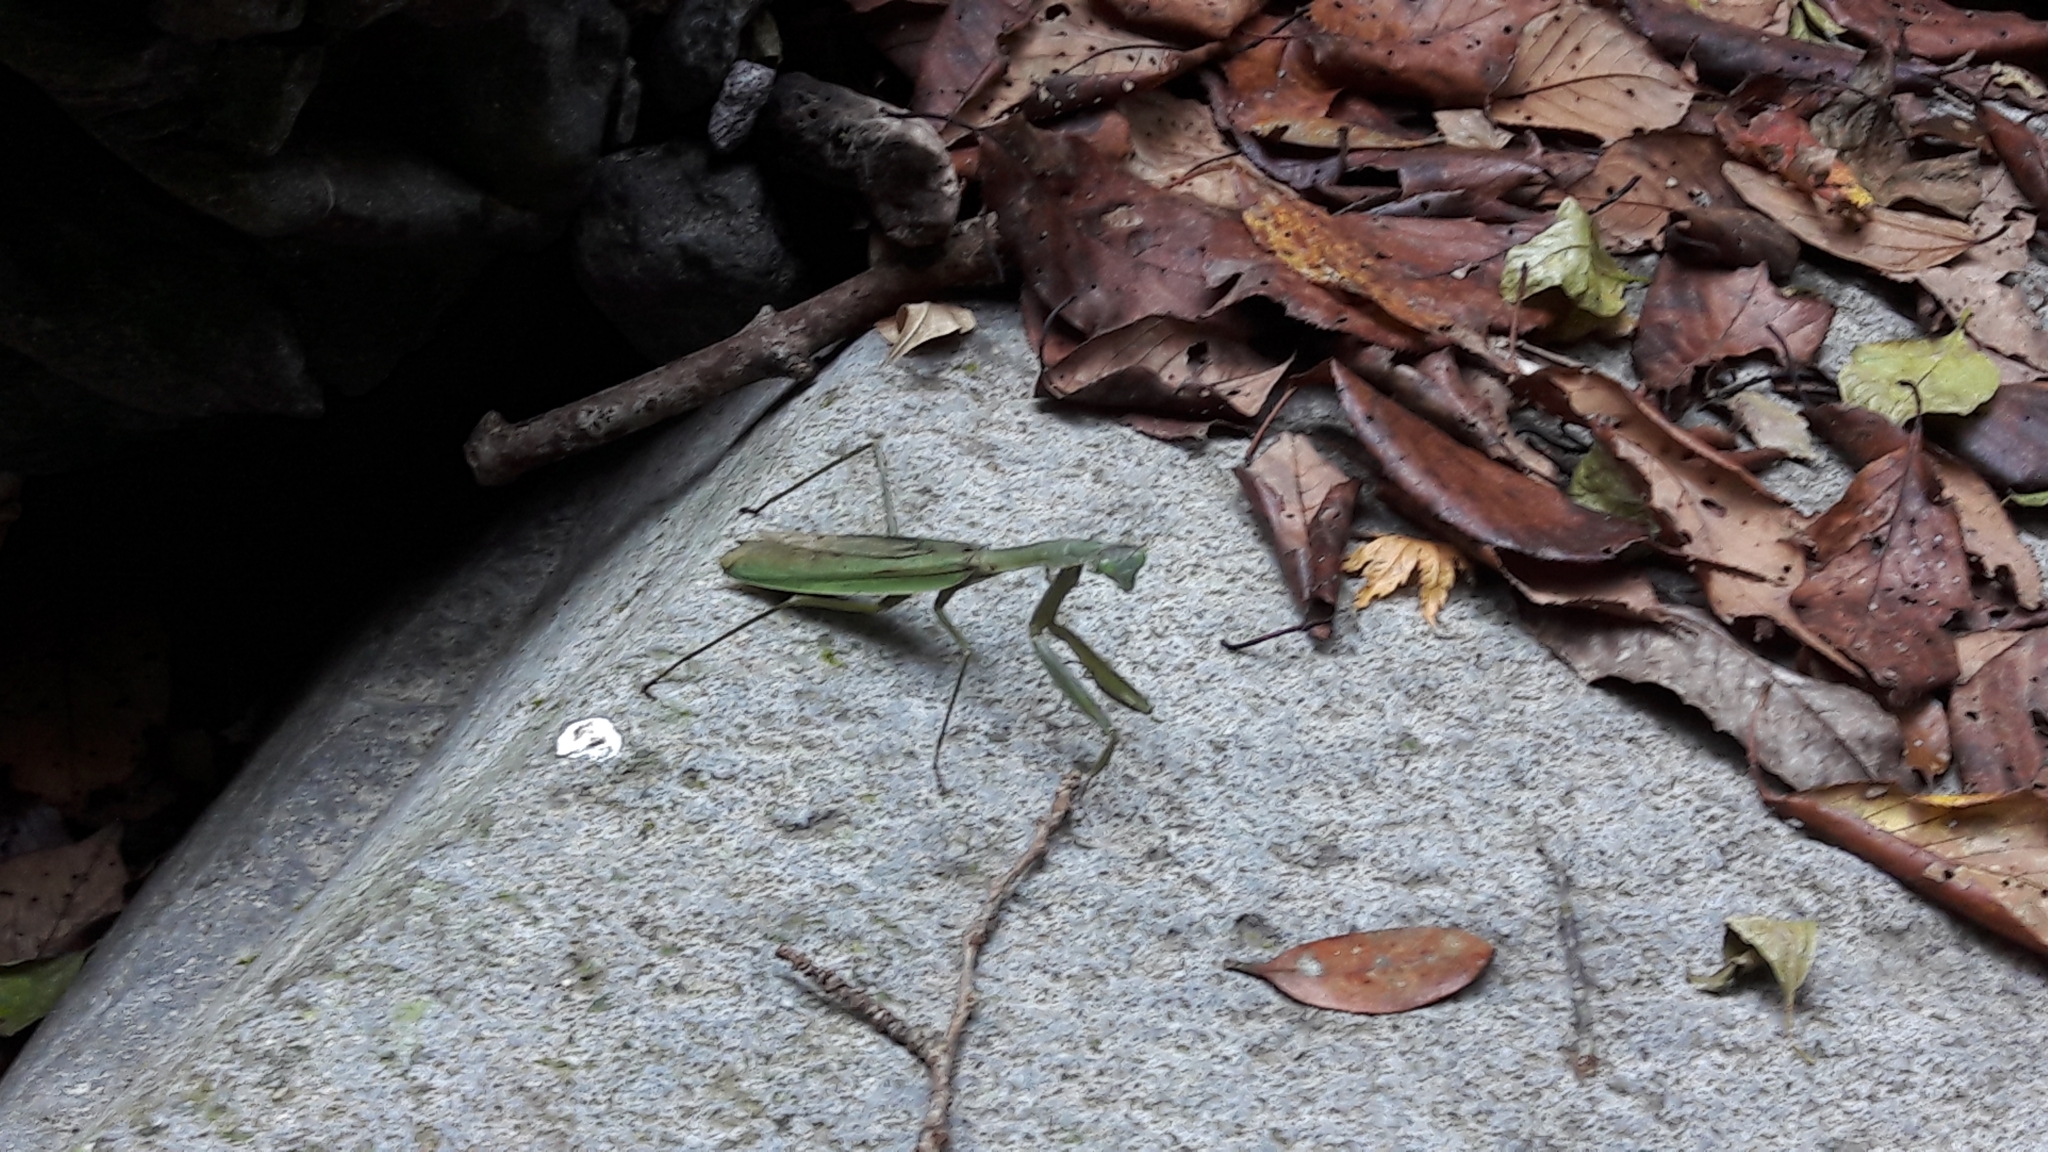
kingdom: Animalia
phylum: Arthropoda
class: Insecta
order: Mantodea
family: Mantidae
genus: Tenodera
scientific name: Tenodera
